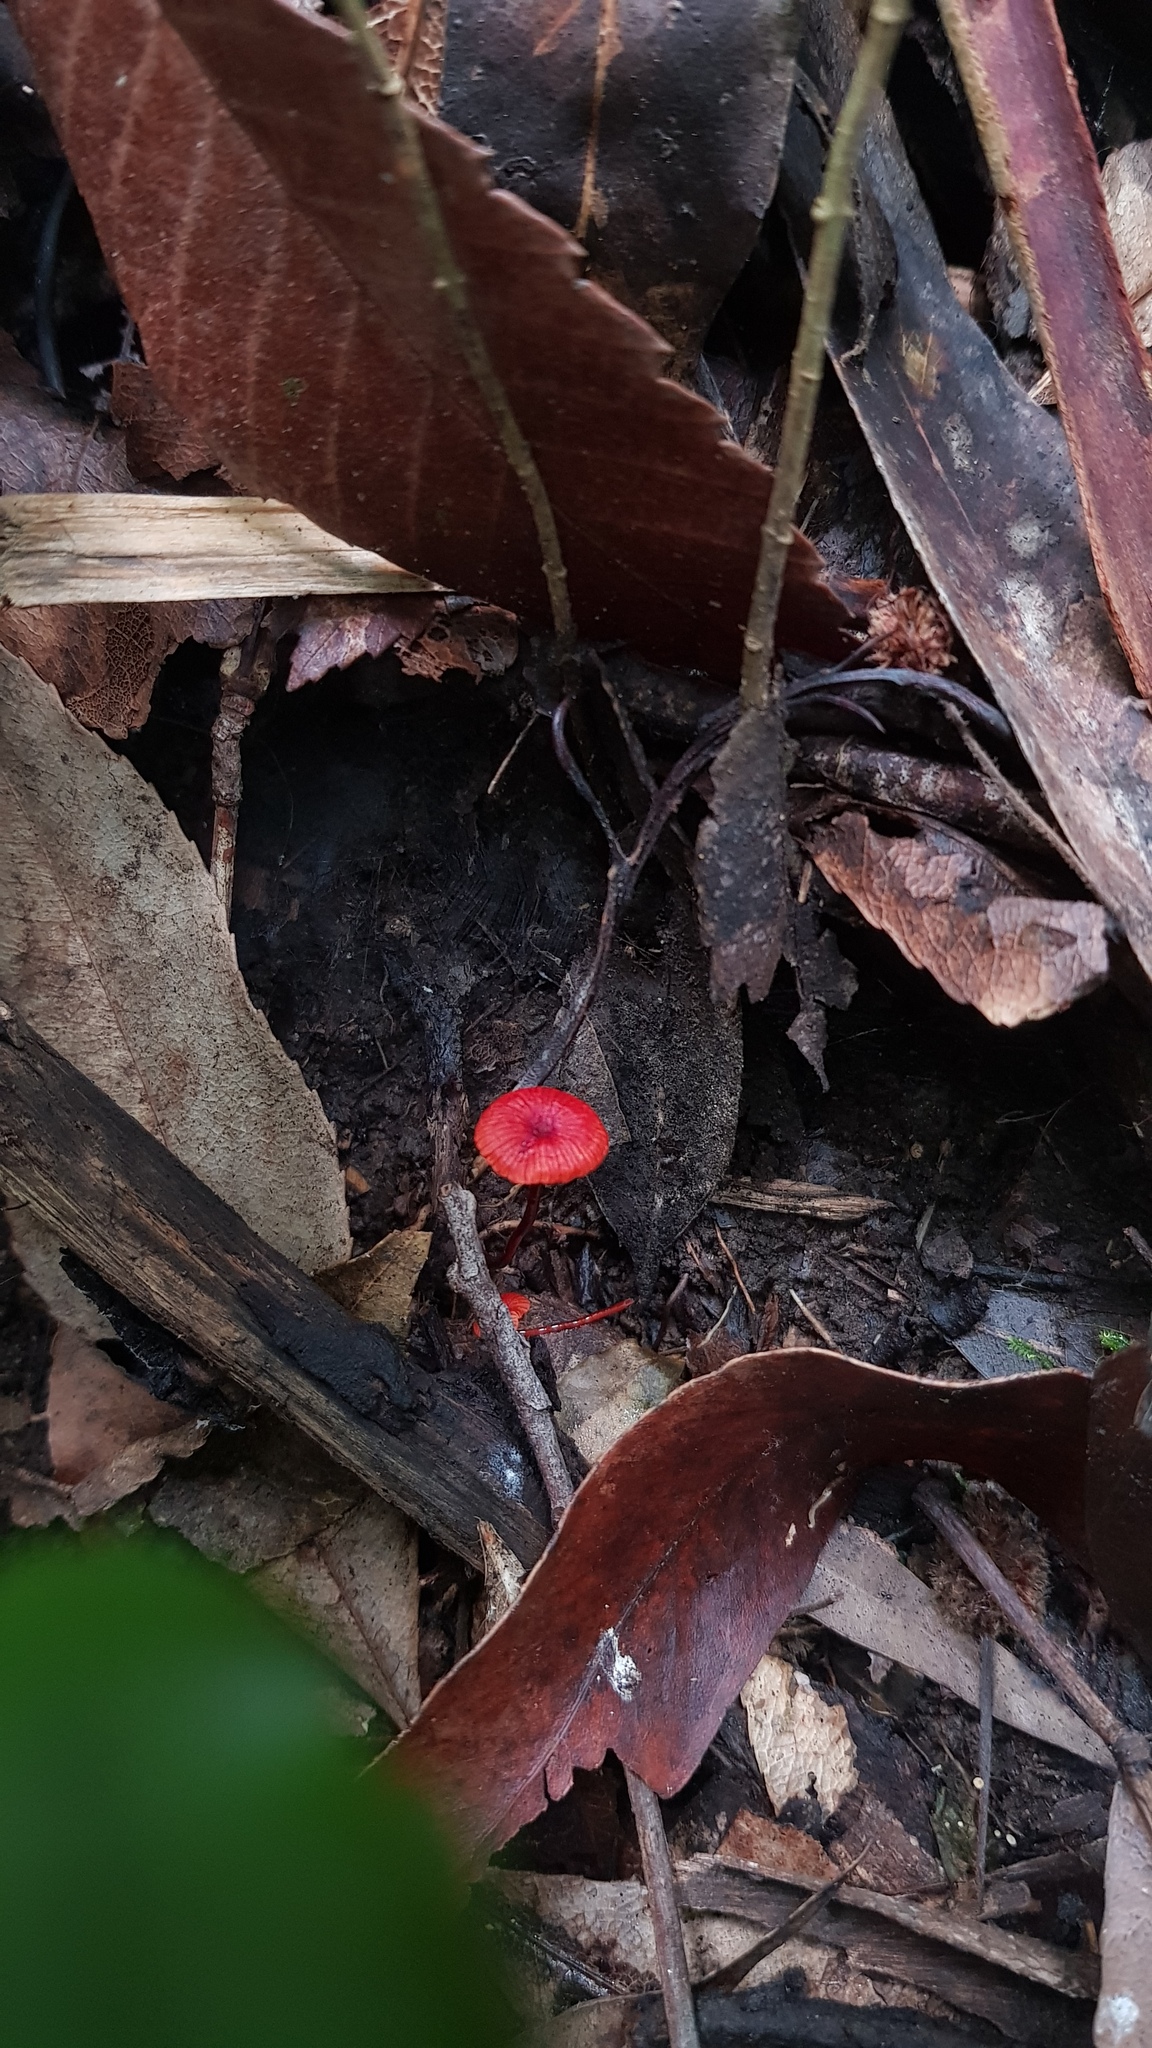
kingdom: Fungi
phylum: Basidiomycota
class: Agaricomycetes
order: Agaricales
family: Mycenaceae
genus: Cruentomycena
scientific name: Cruentomycena viscidocruenta
